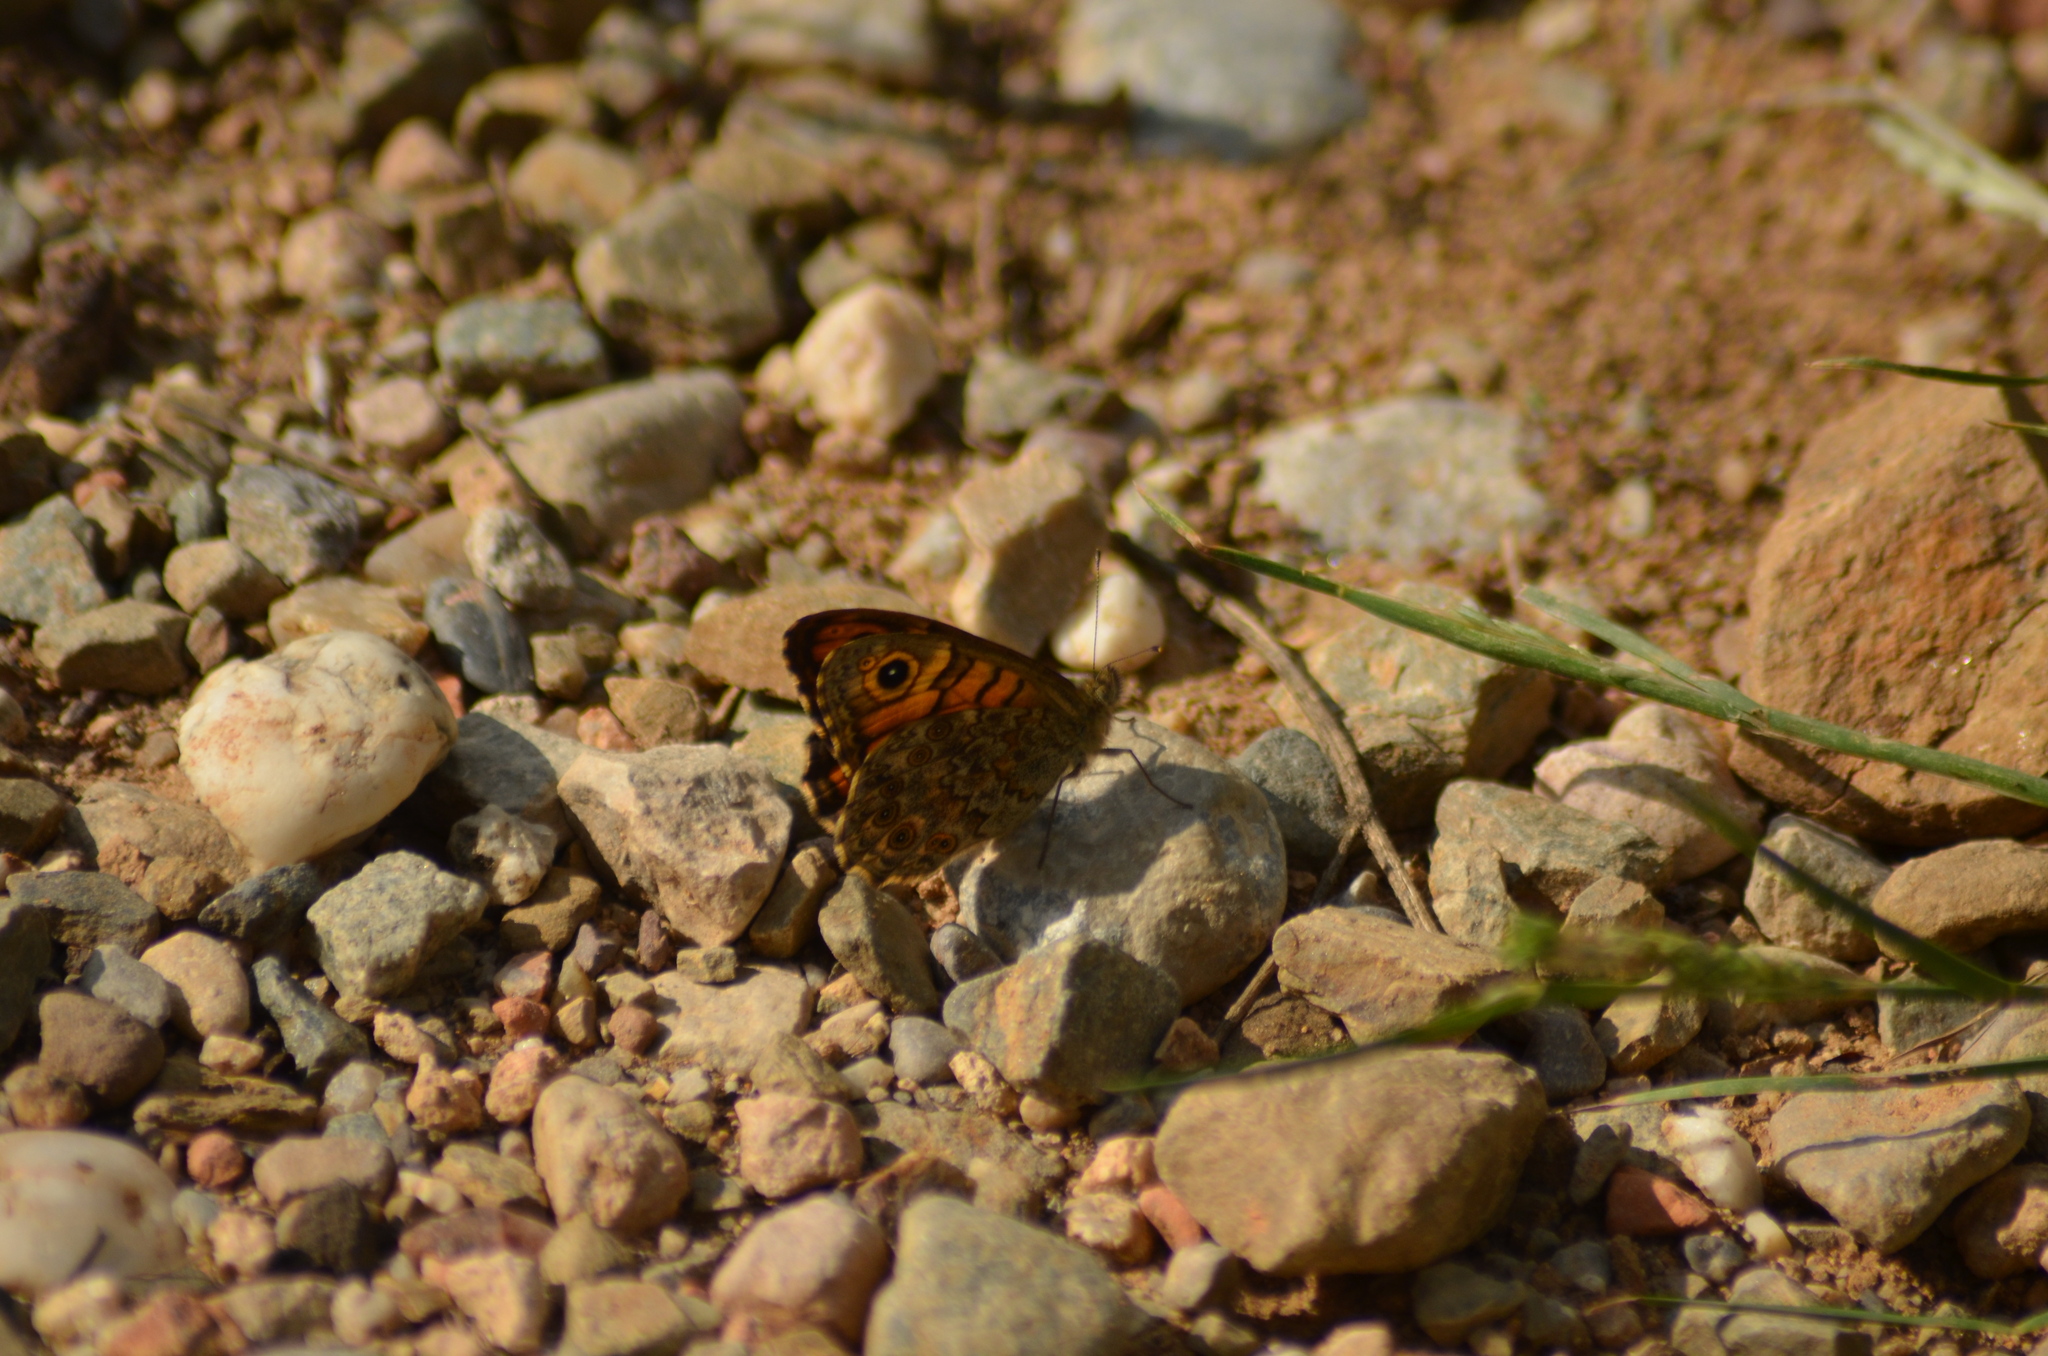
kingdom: Animalia
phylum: Arthropoda
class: Insecta
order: Lepidoptera
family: Nymphalidae
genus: Pararge
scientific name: Pararge Lasiommata megera
